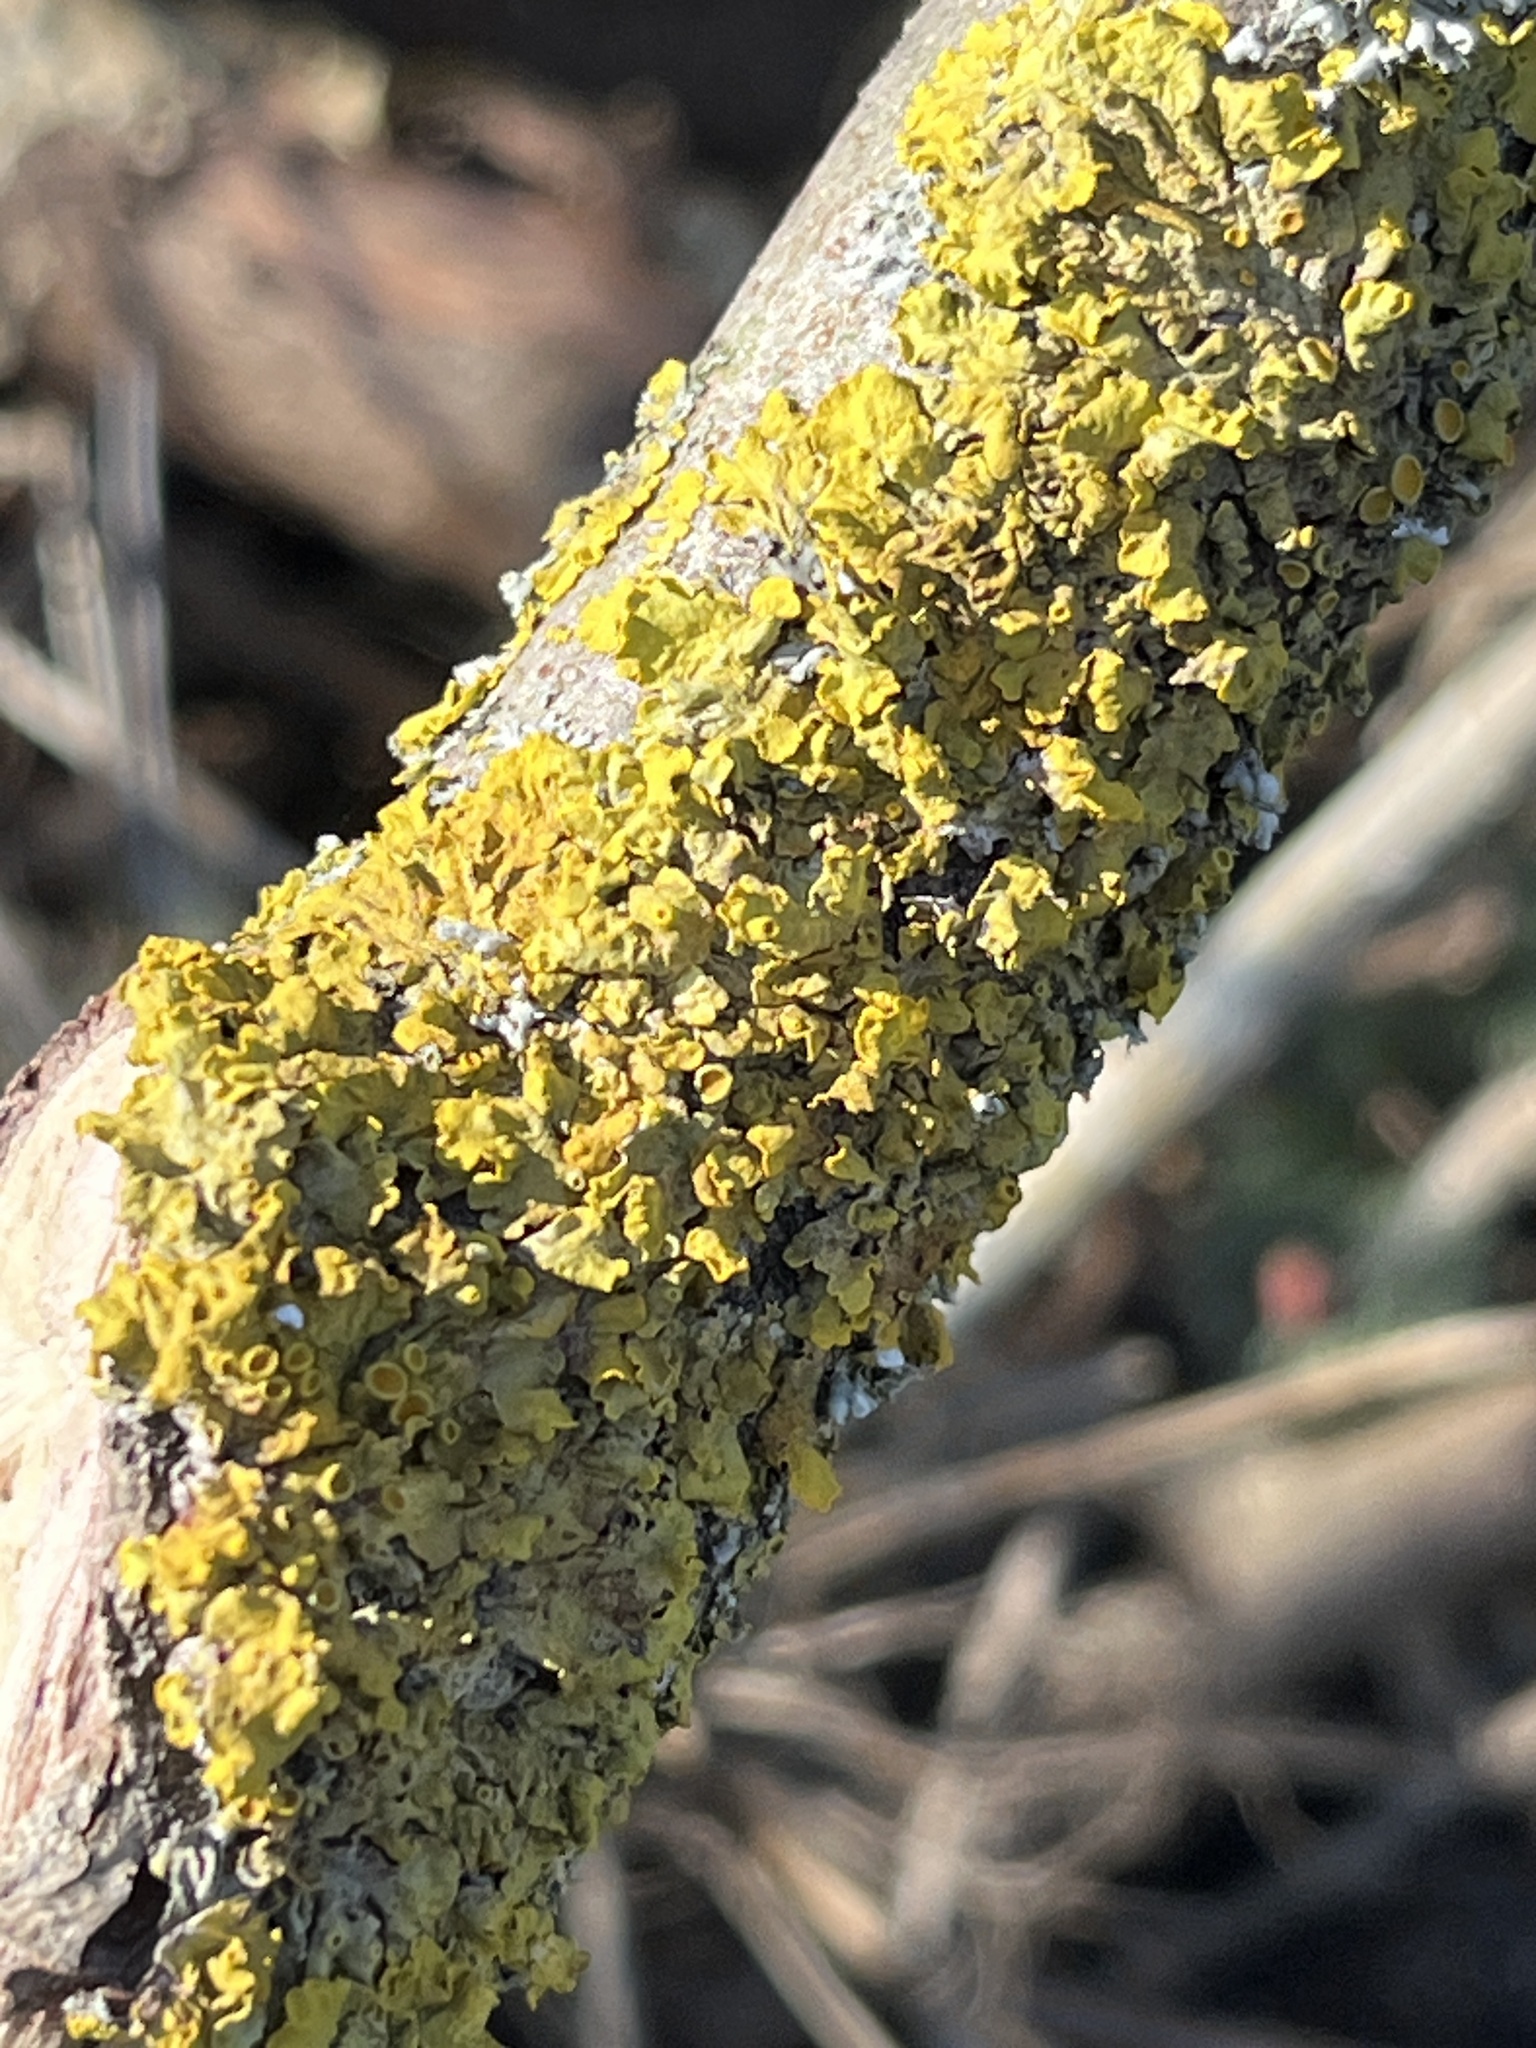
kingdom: Fungi
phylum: Ascomycota
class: Lecanoromycetes
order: Teloschistales
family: Teloschistaceae
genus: Xanthoria
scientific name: Xanthoria parietina
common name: Common orange lichen
